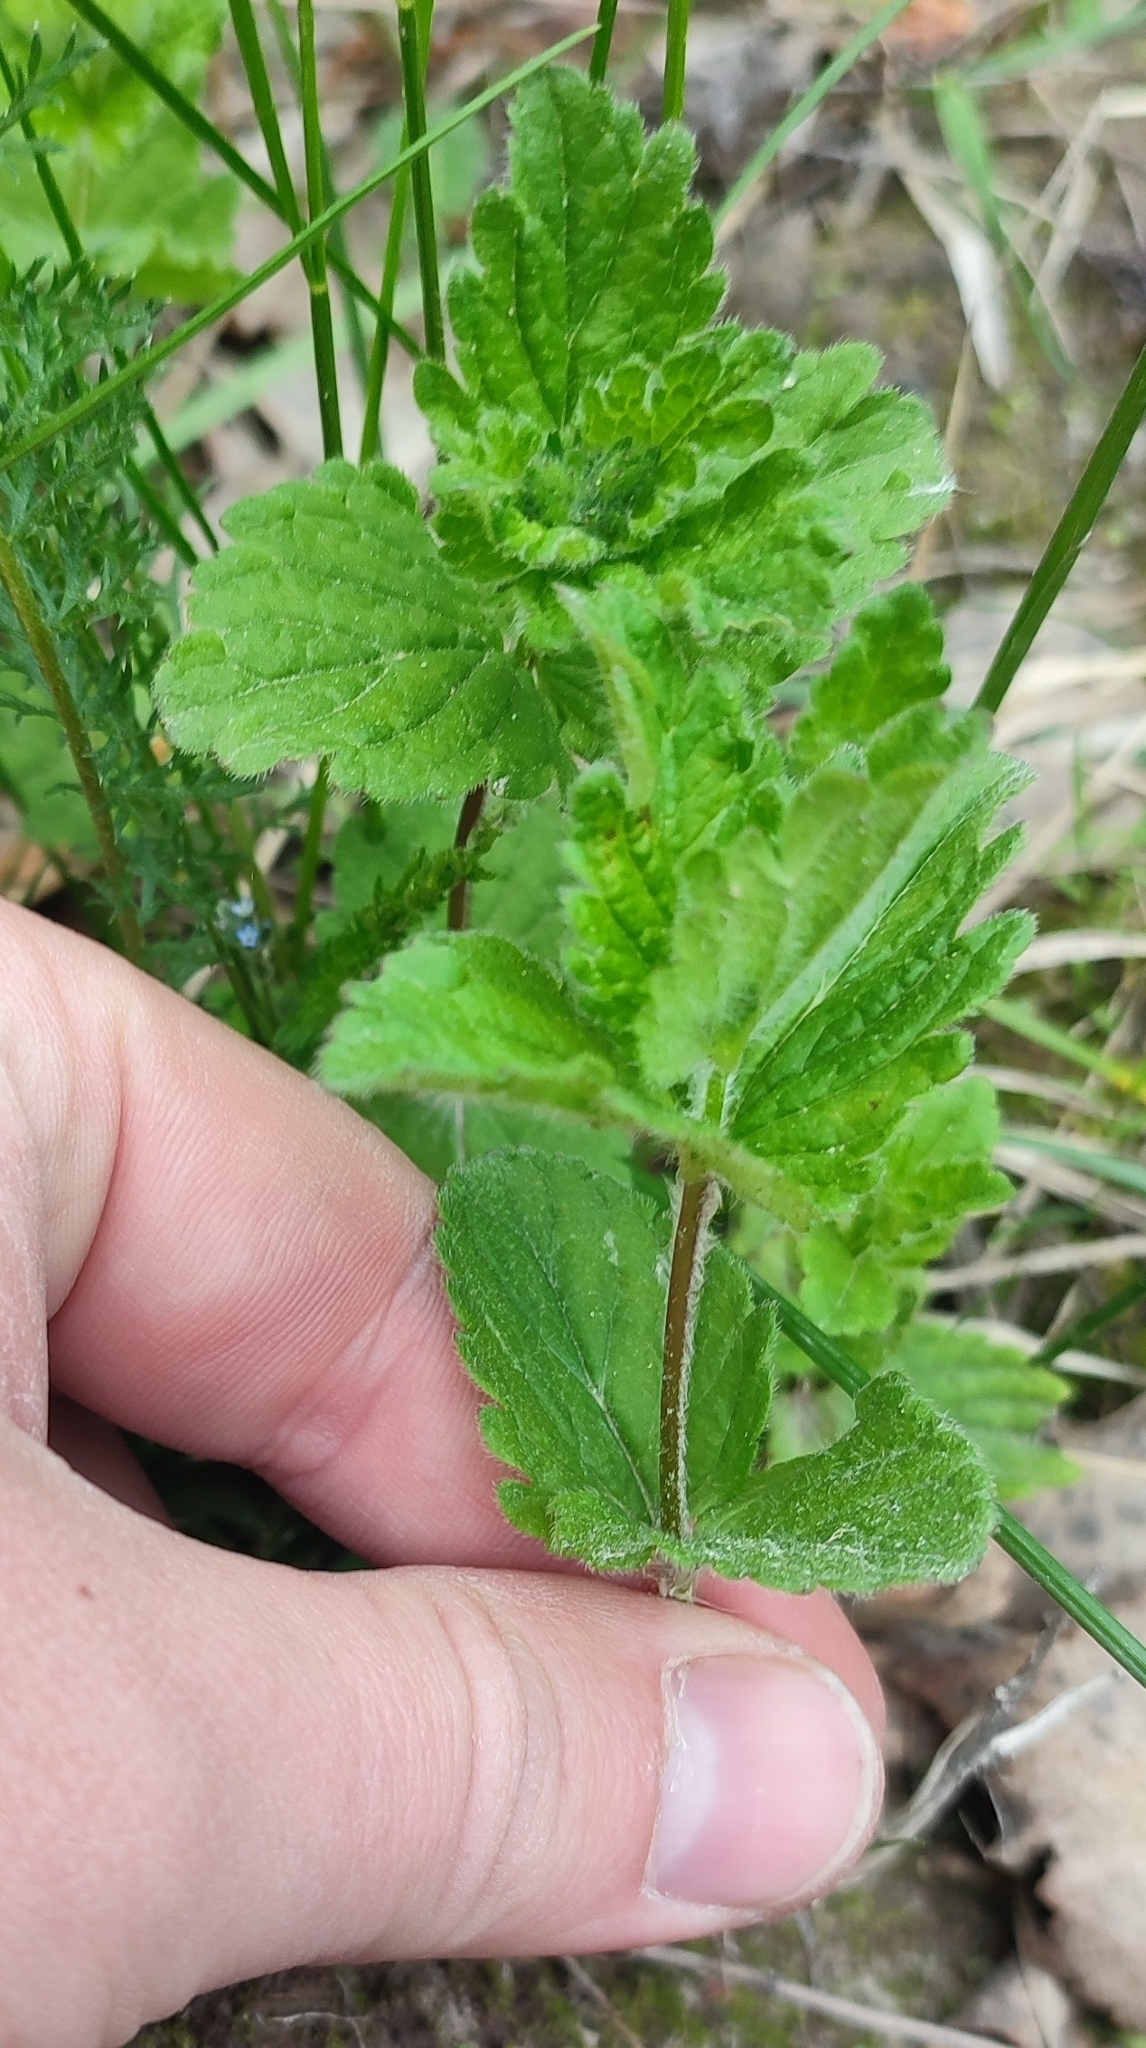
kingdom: Plantae
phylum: Tracheophyta
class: Magnoliopsida
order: Lamiales
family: Plantaginaceae
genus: Veronica
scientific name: Veronica chamaedrys
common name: Germander speedwell
